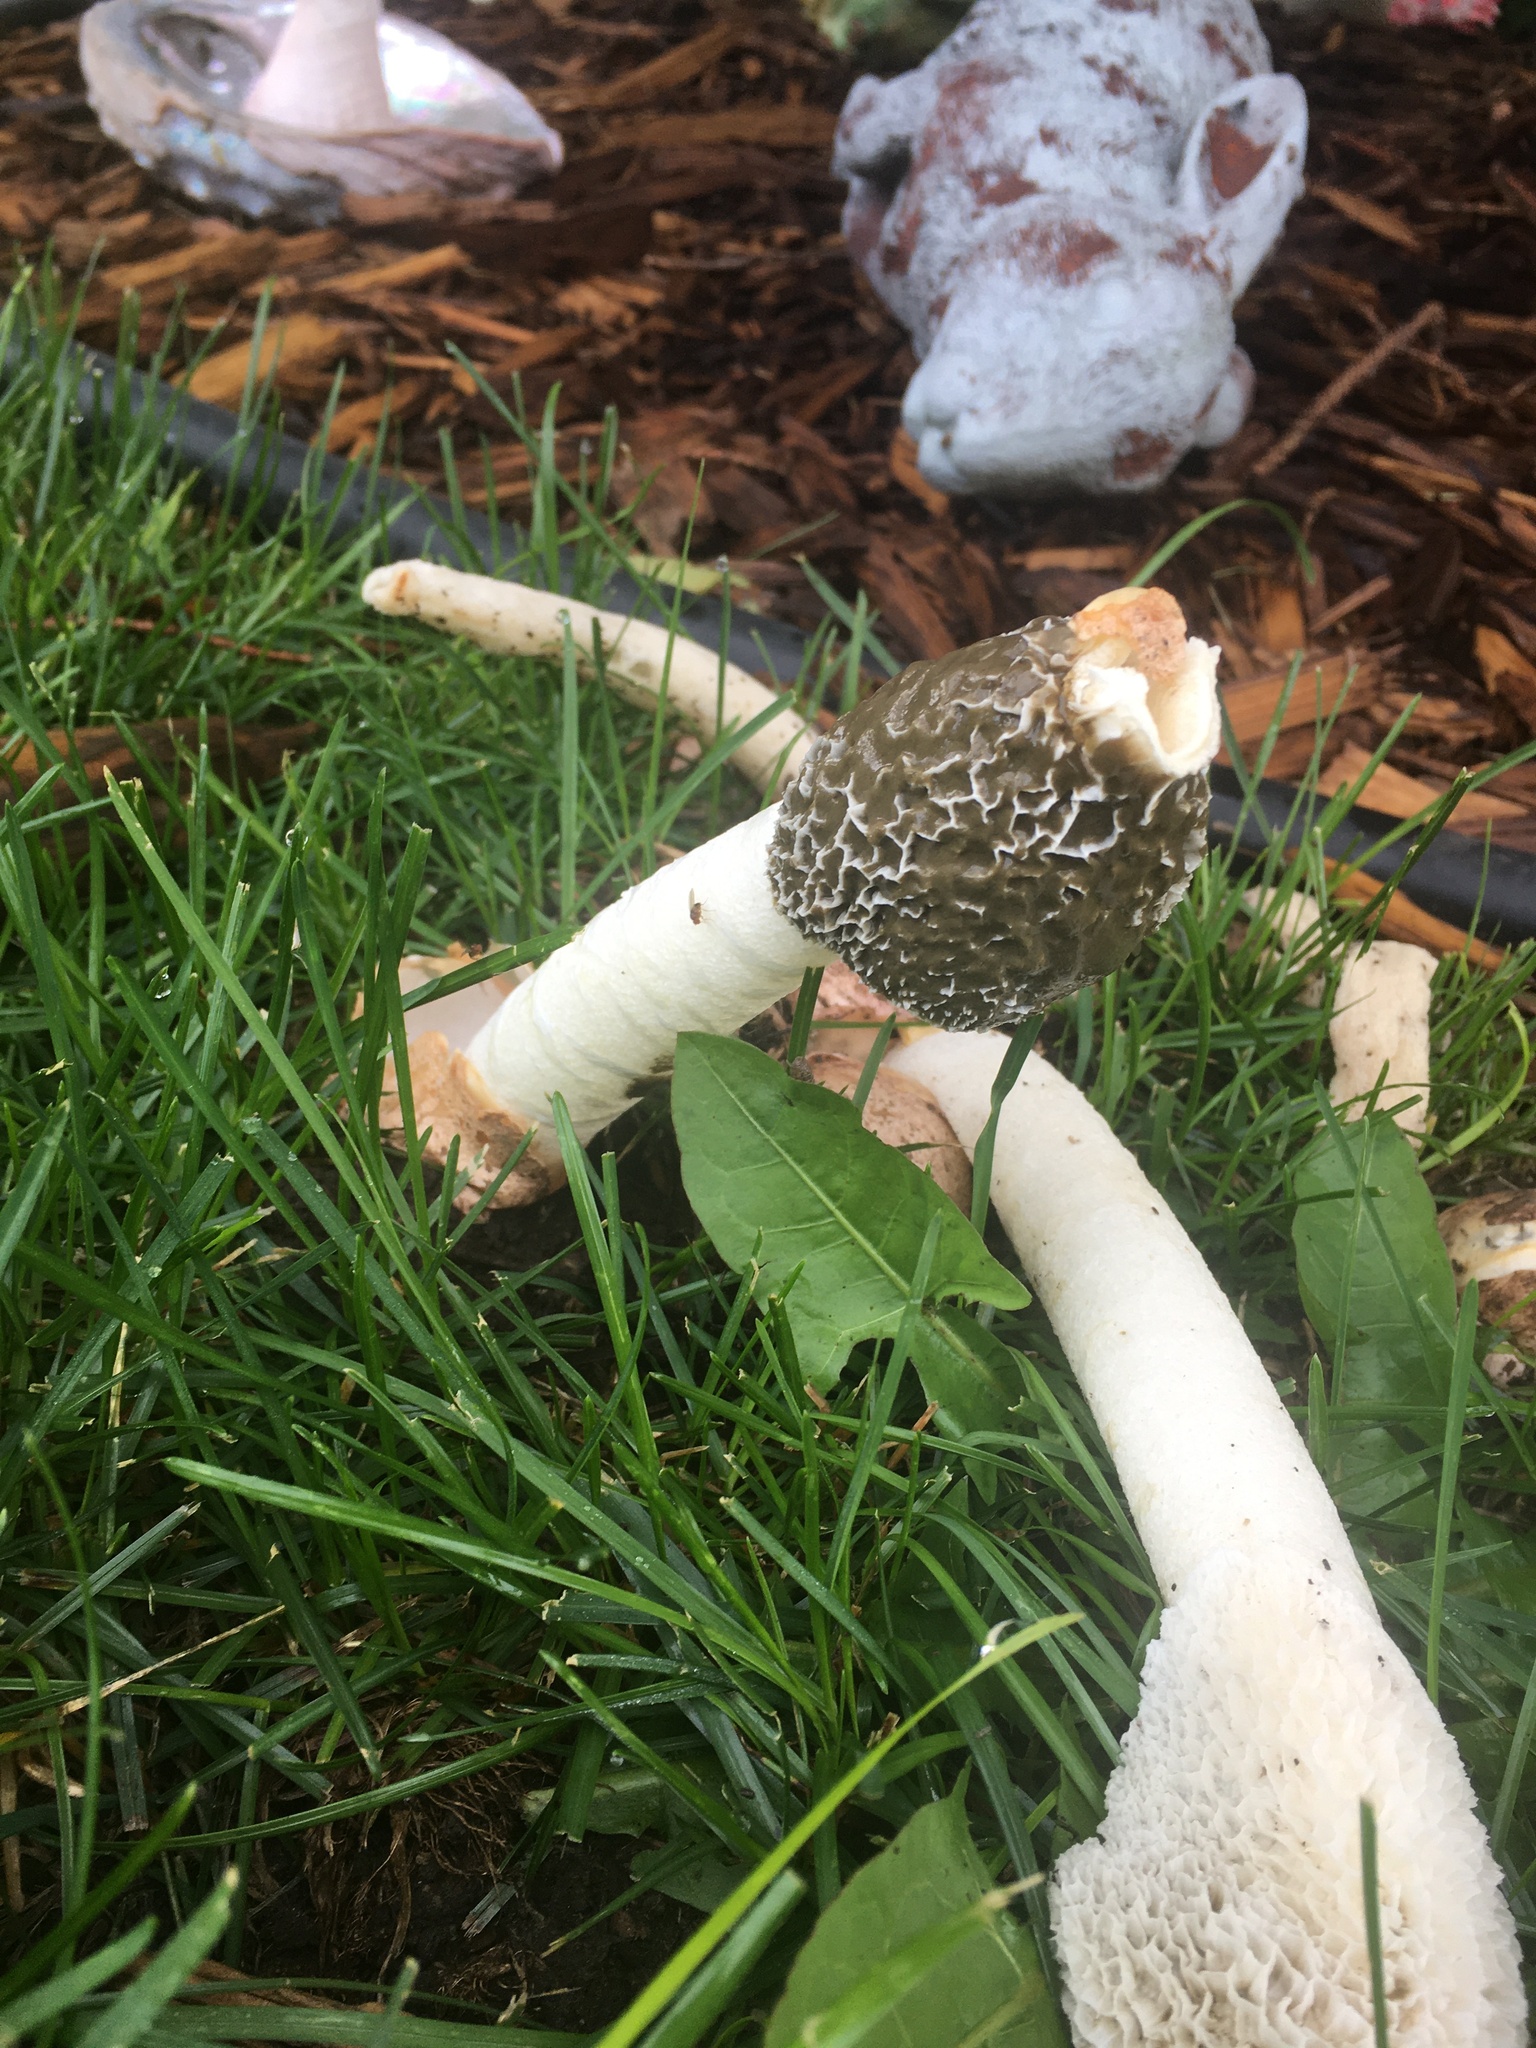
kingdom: Fungi
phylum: Basidiomycota
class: Agaricomycetes
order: Phallales
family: Phallaceae
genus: Phallus
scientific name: Phallus impudicus
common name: Common stinkhorn
